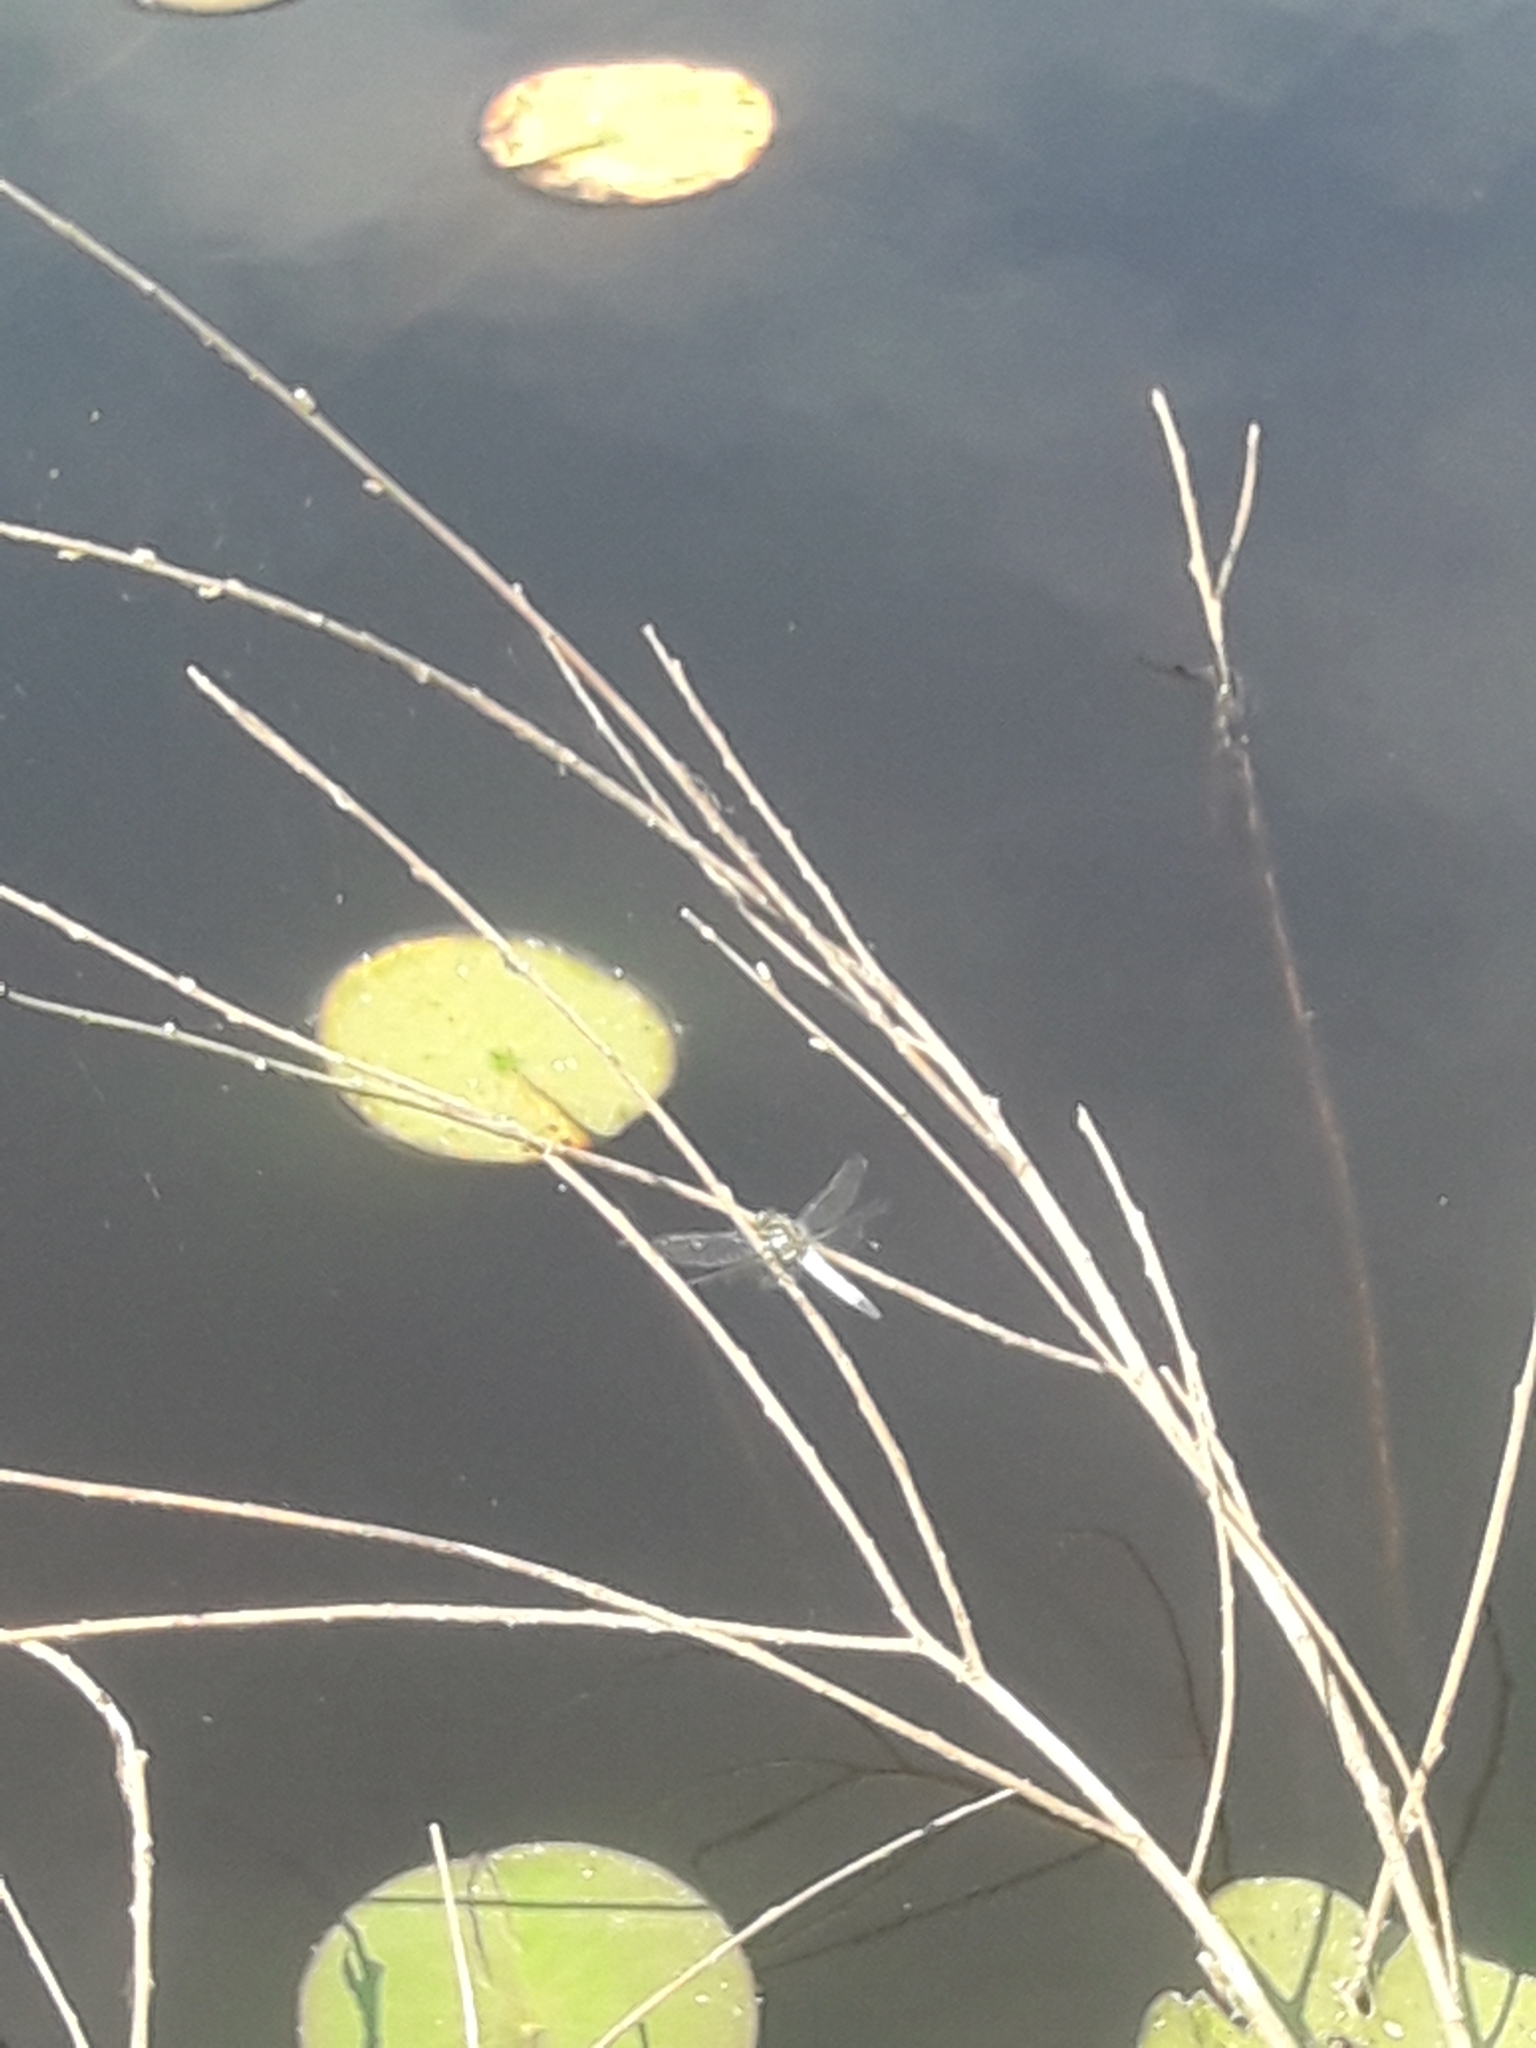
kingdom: Animalia
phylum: Arthropoda
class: Insecta
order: Odonata
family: Libellulidae
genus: Orthetrum
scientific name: Orthetrum cancellatum
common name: Black-tailed skimmer
